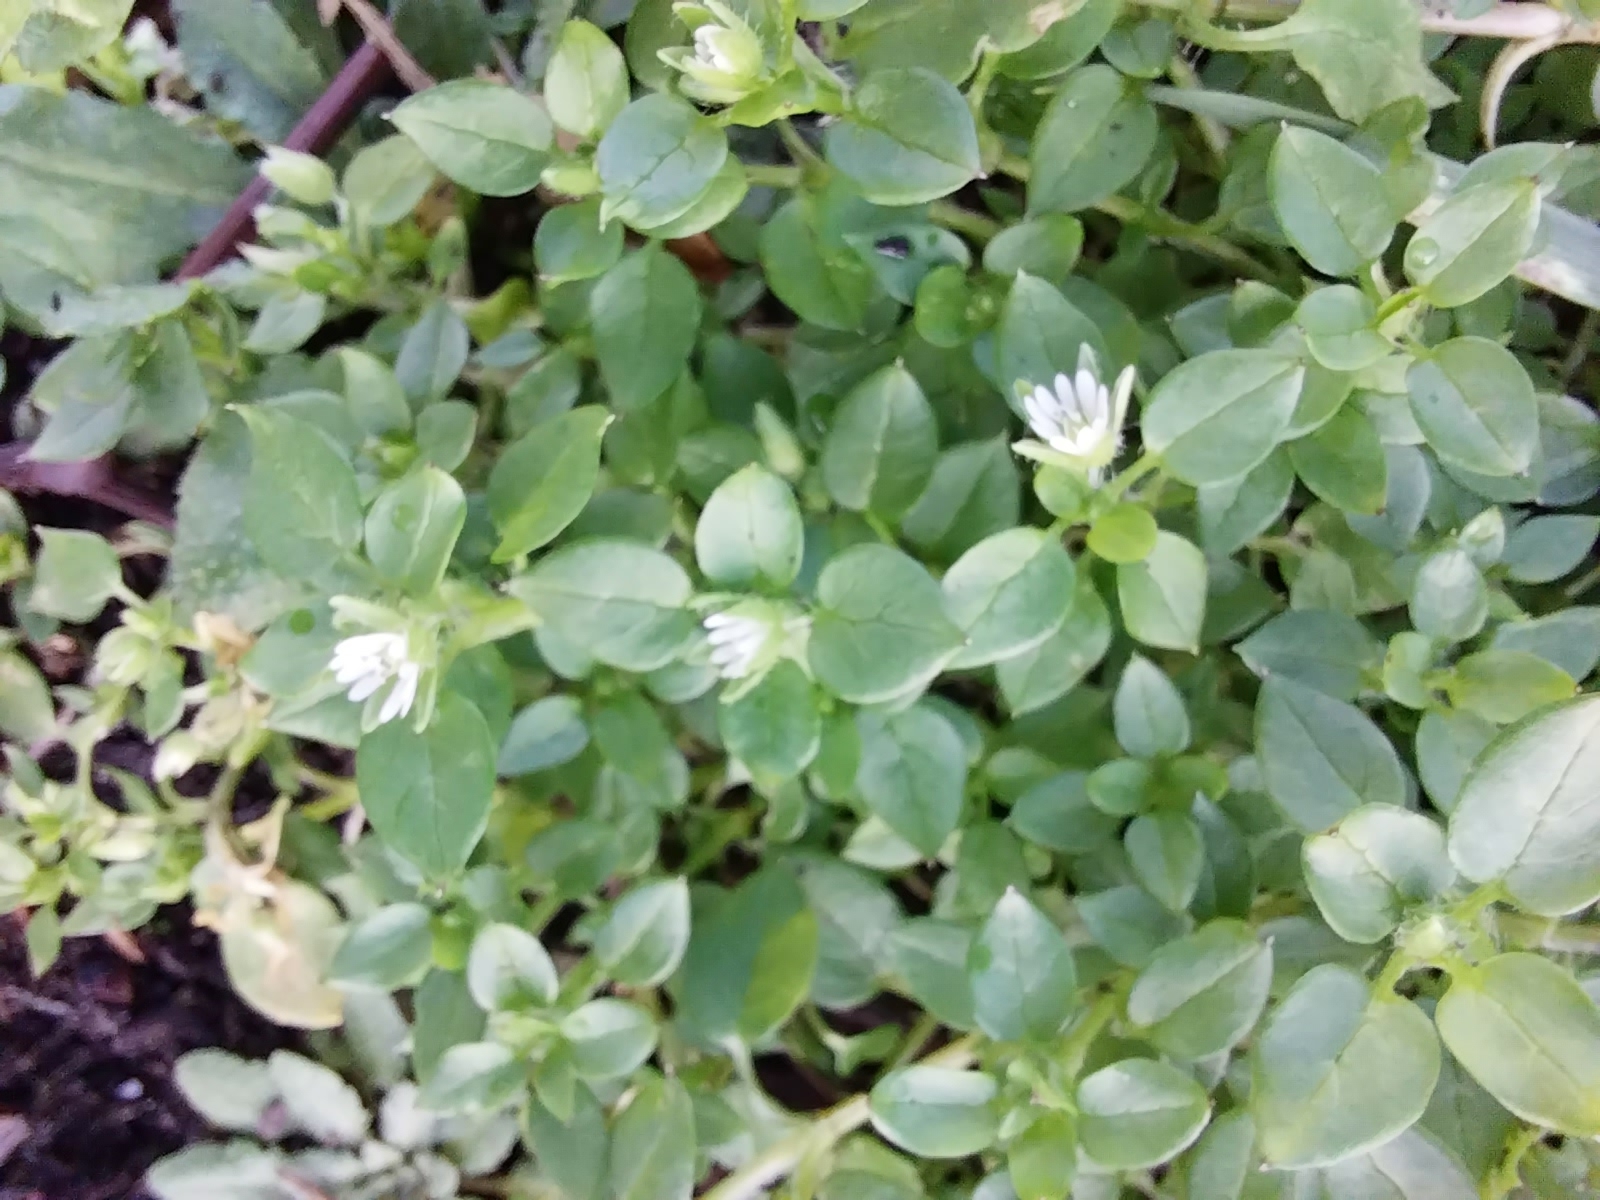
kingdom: Plantae
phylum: Tracheophyta
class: Magnoliopsida
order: Caryophyllales
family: Caryophyllaceae
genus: Stellaria
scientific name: Stellaria media
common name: Common chickweed
